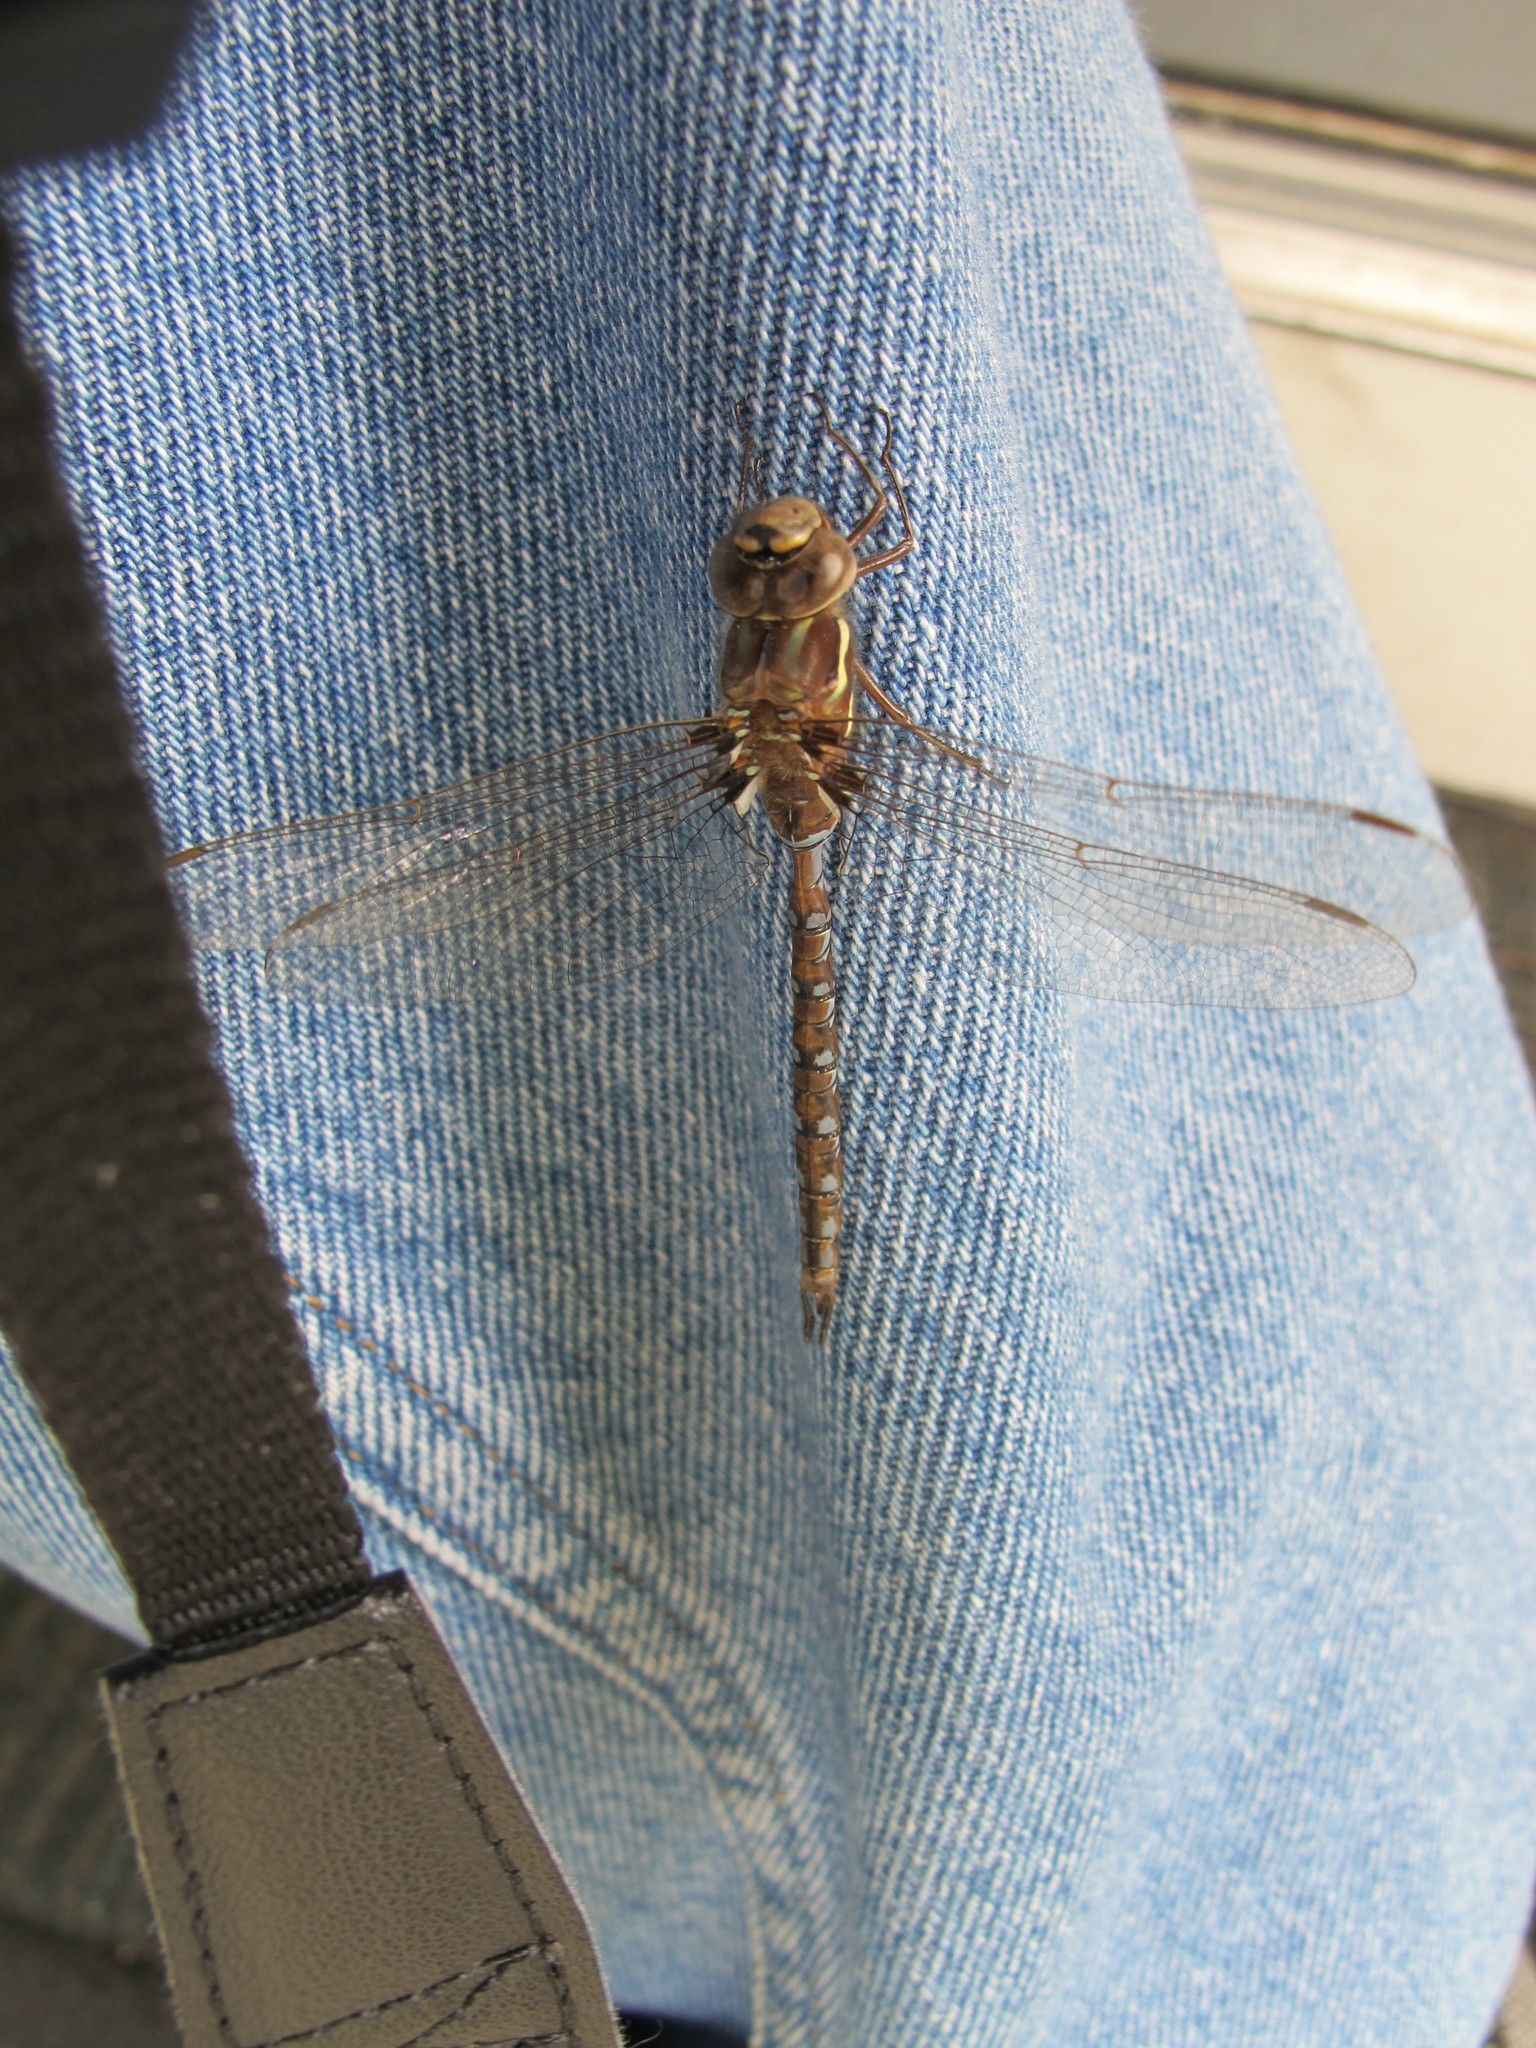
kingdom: Animalia
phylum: Arthropoda
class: Insecta
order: Odonata
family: Aeshnidae
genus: Basiaeschna
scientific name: Basiaeschna janata
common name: Springtime darner
